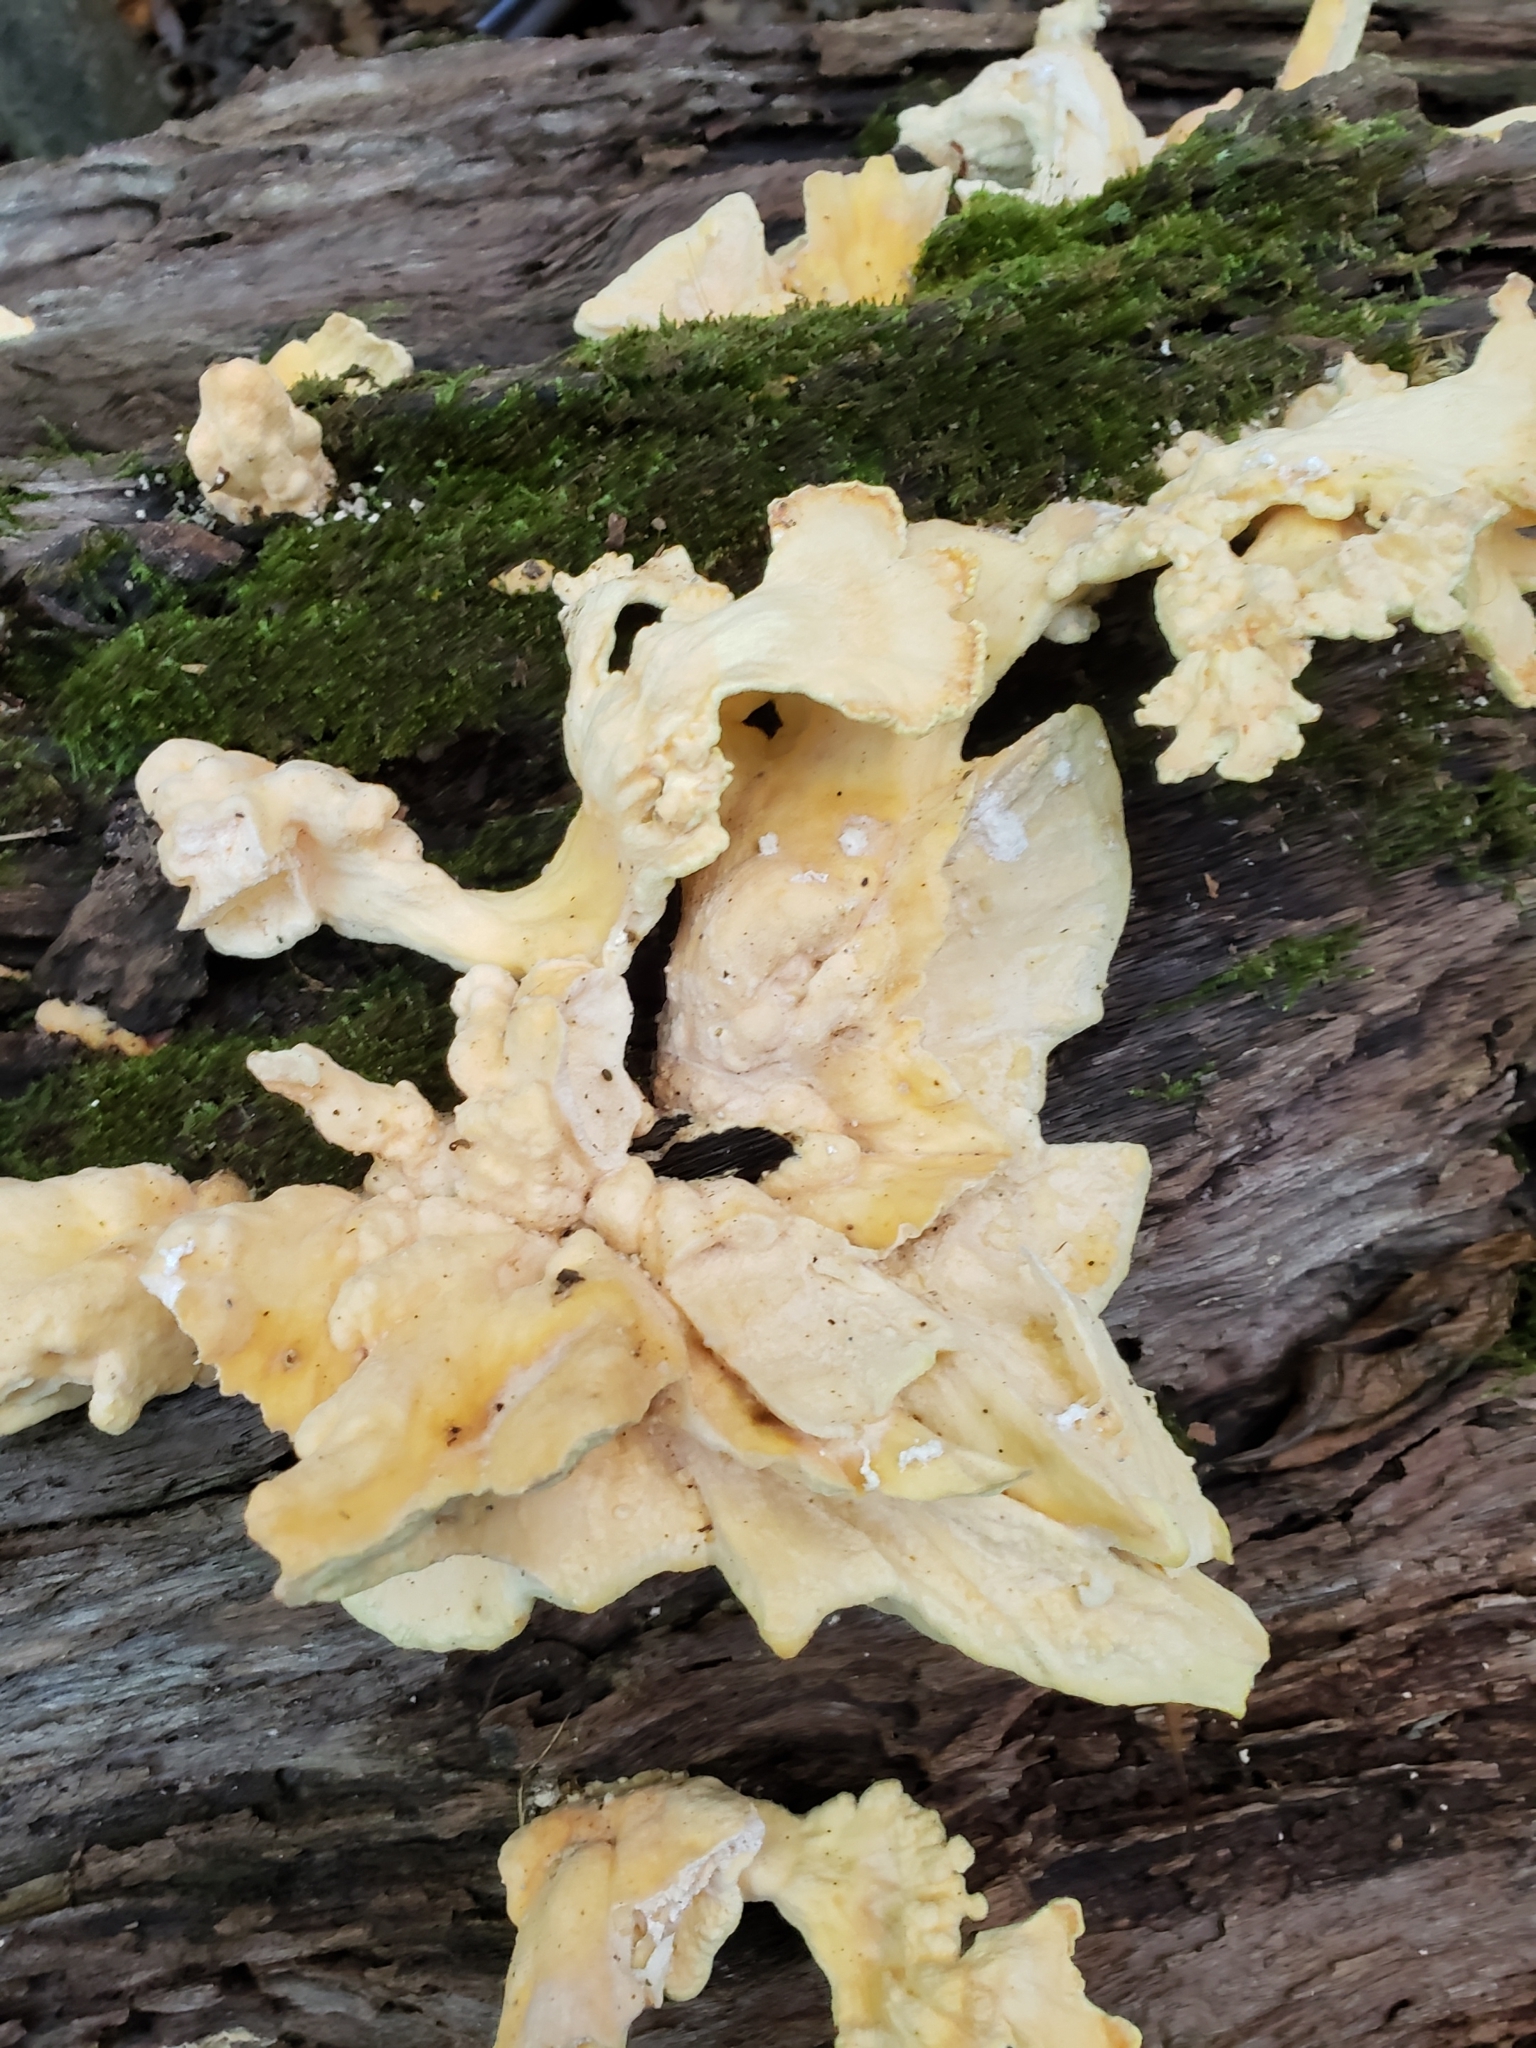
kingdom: Fungi
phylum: Basidiomycota
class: Agaricomycetes
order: Polyporales
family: Laetiporaceae
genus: Laetiporus
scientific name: Laetiporus sulphureus
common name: Chicken of the woods
